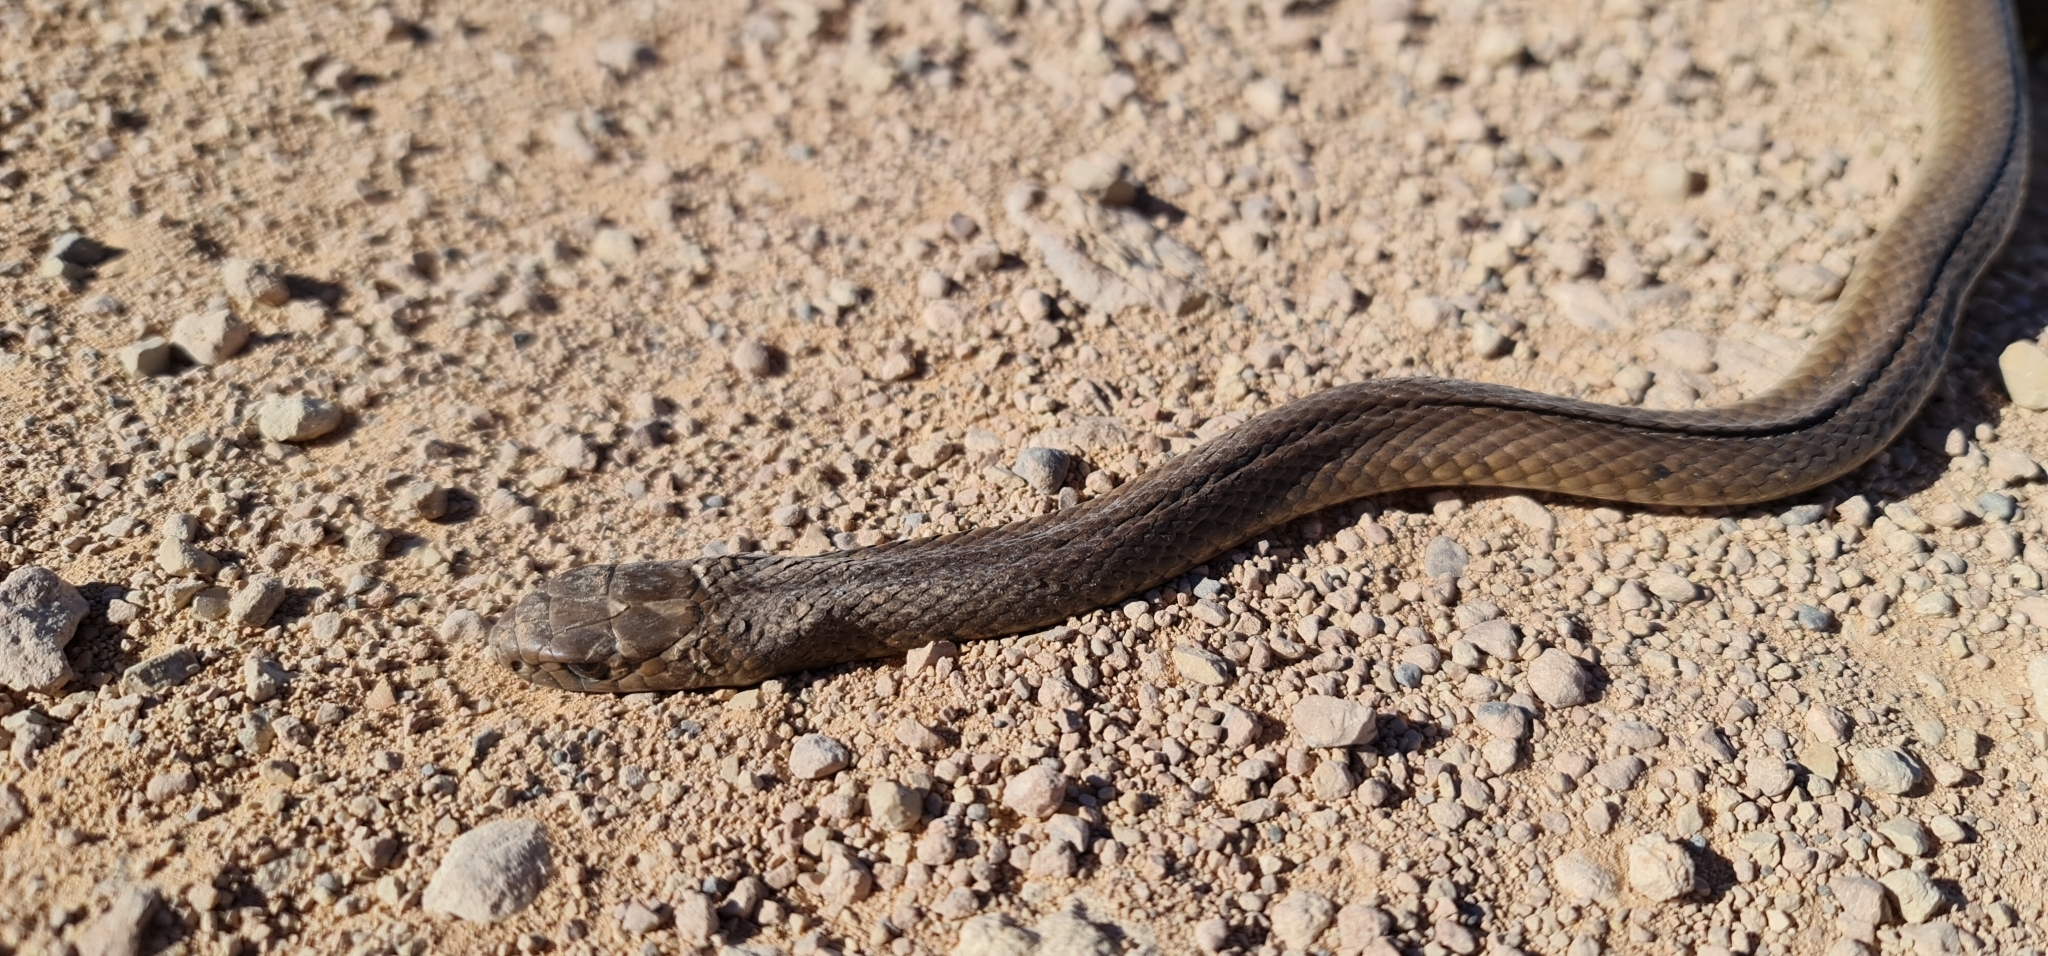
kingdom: Animalia
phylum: Chordata
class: Squamata
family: Elapidae
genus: Pseudonaja
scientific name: Pseudonaja textilis
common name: Eastern brown snake
